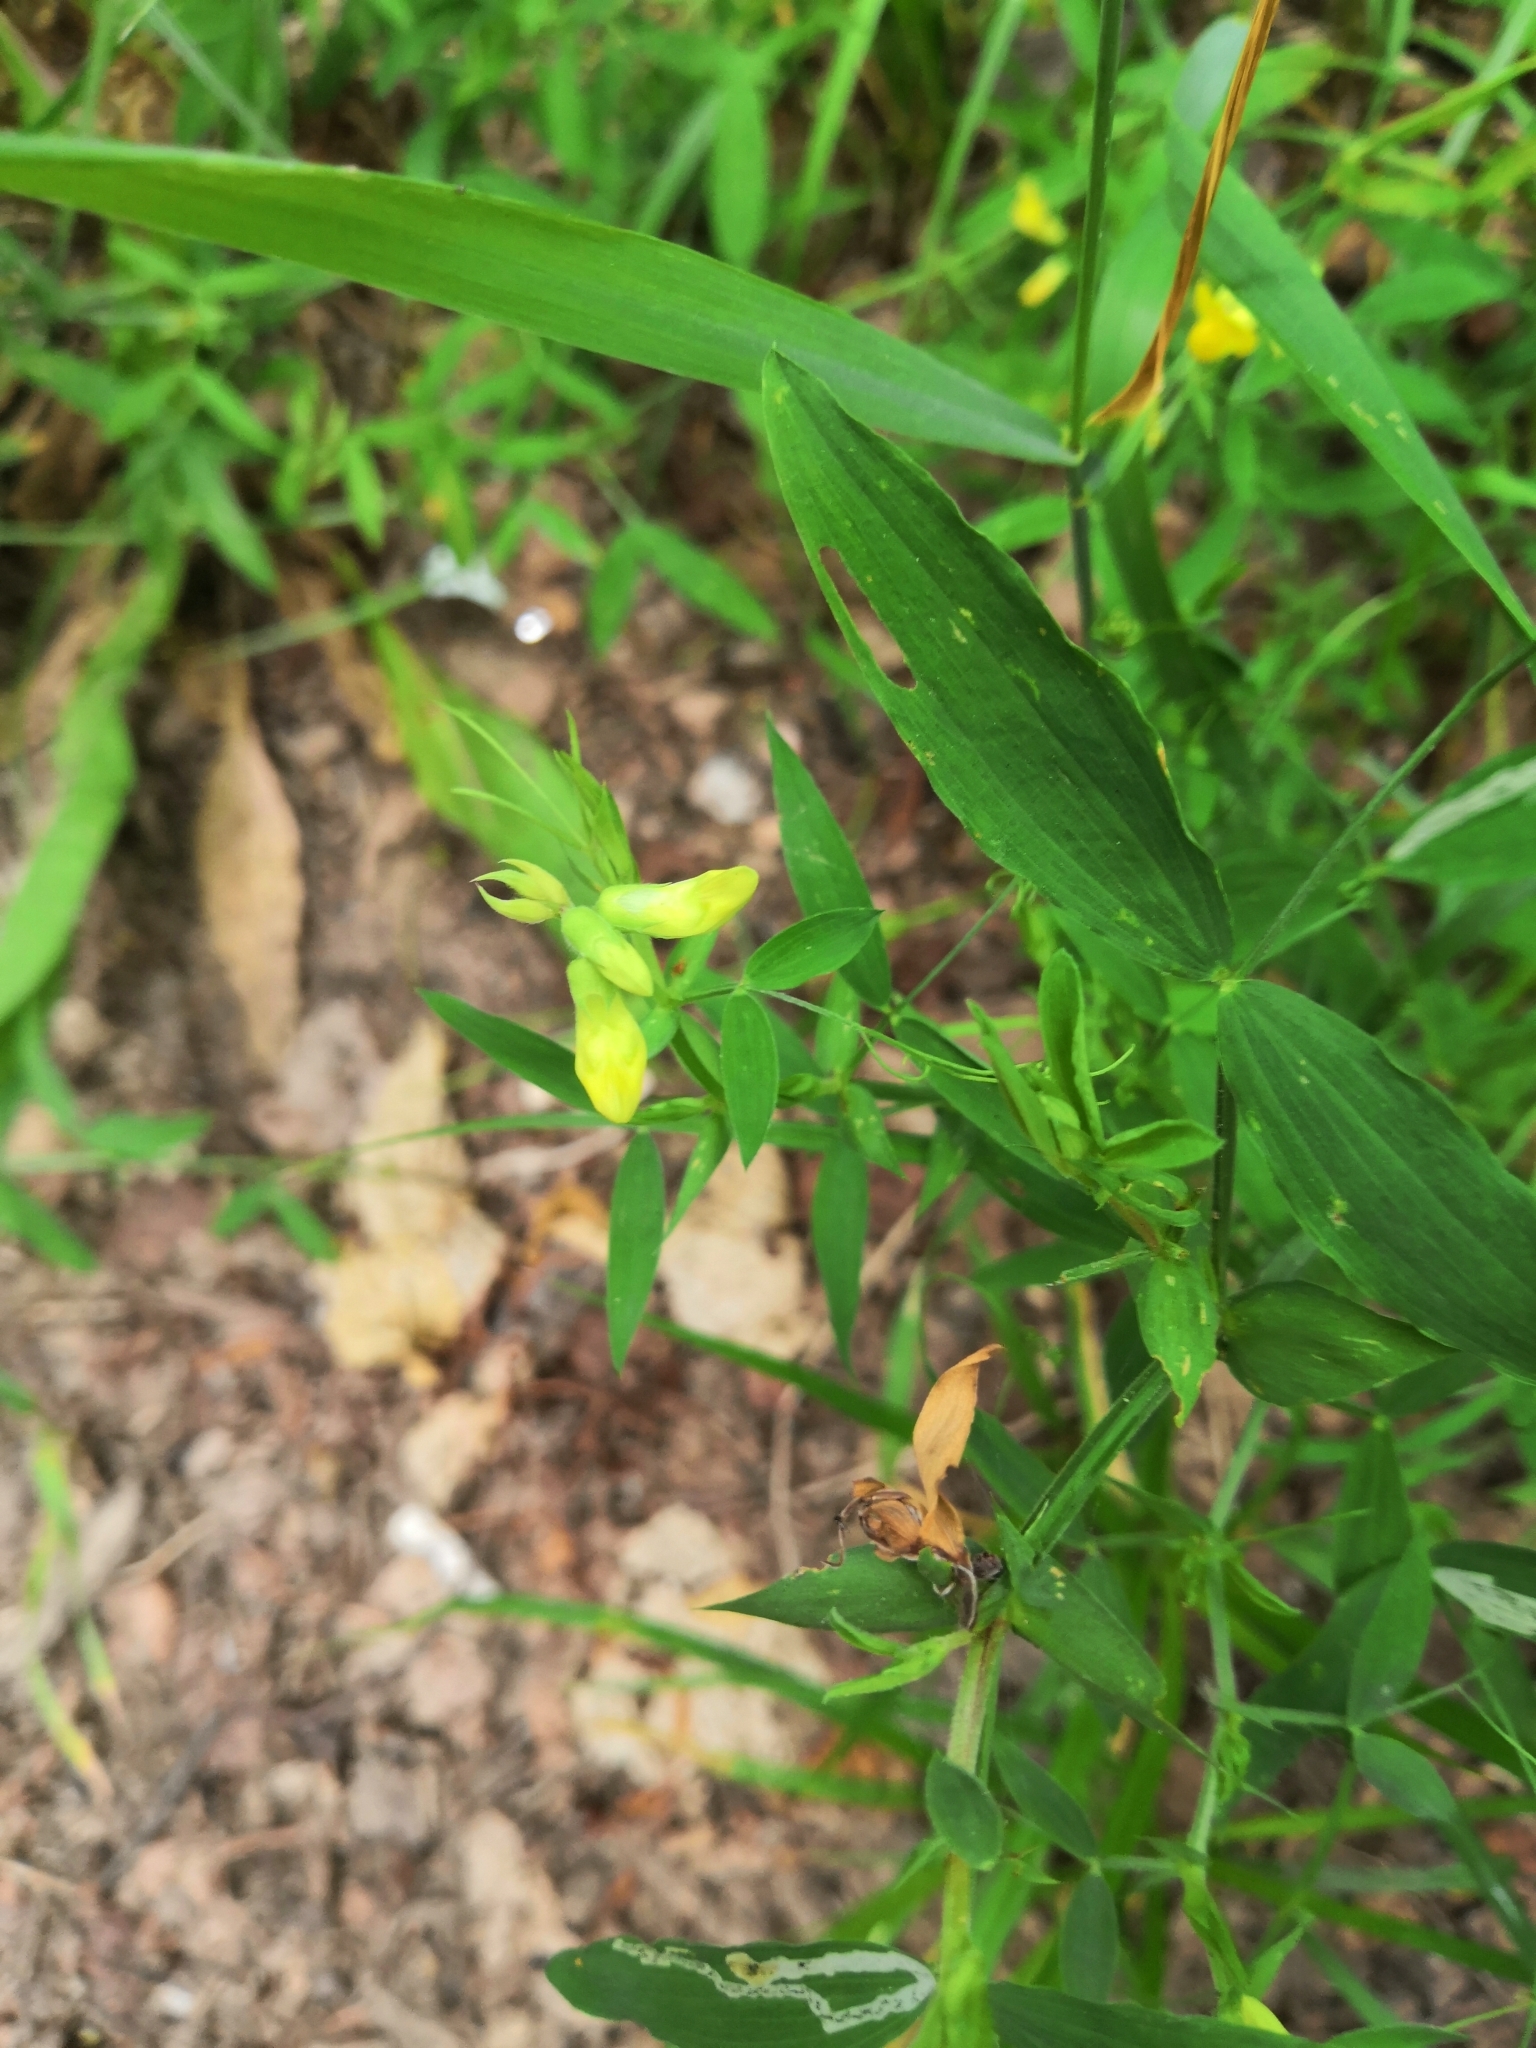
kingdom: Plantae
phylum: Tracheophyta
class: Magnoliopsida
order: Fabales
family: Fabaceae
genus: Lathyrus
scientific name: Lathyrus pratensis
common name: Meadow vetchling
